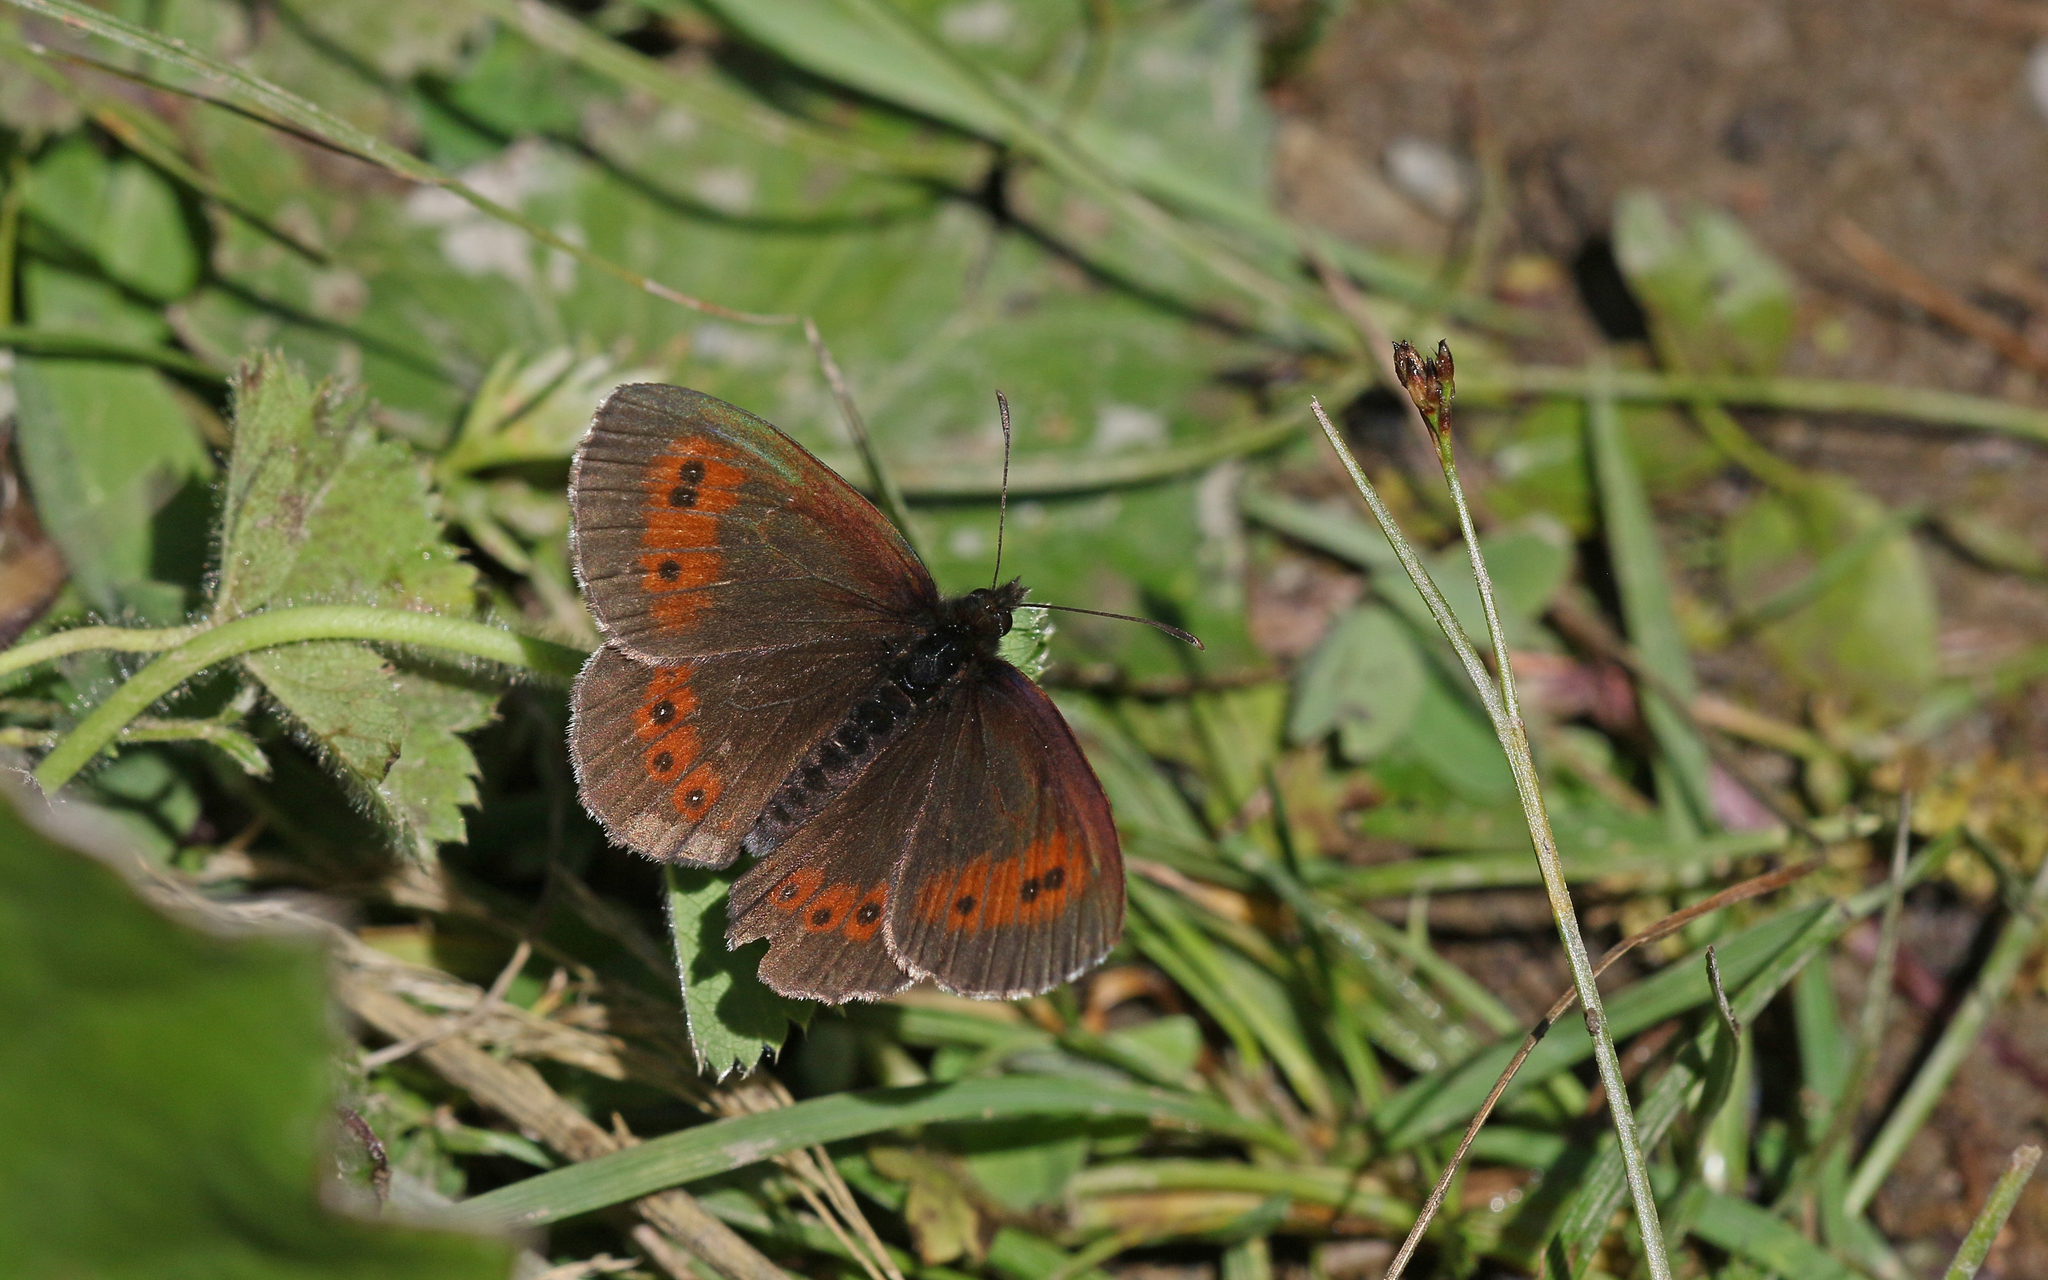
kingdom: Animalia
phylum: Arthropoda
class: Insecta
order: Lepidoptera
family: Nymphalidae
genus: Erebia
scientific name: Erebia euryale
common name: Large ringlet
